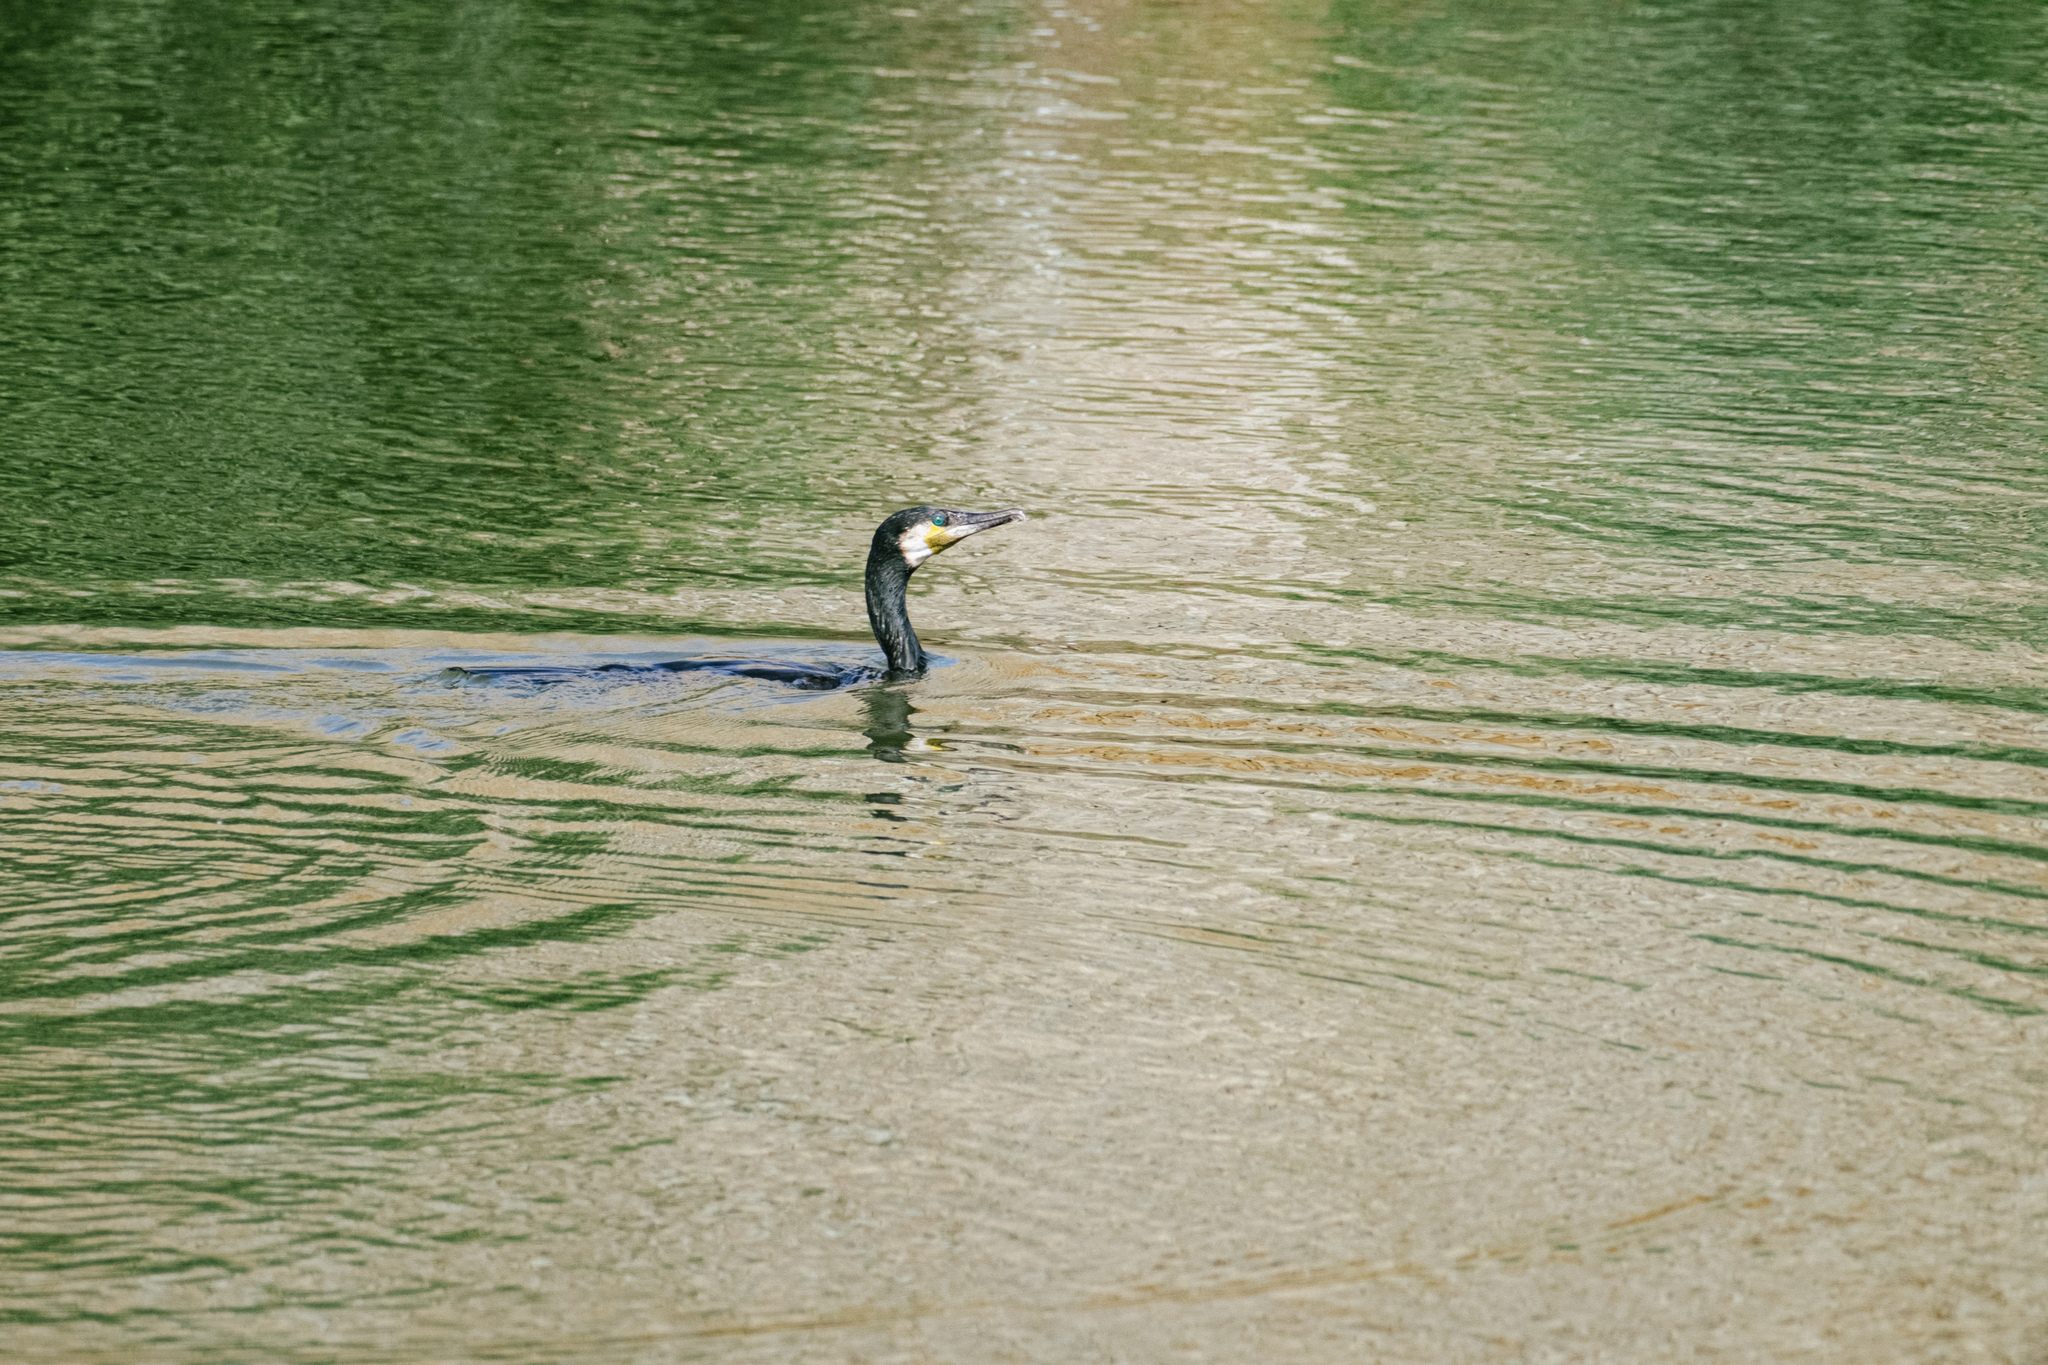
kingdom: Animalia
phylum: Chordata
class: Aves
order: Suliformes
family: Phalacrocoracidae
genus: Phalacrocorax
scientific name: Phalacrocorax carbo
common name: Great cormorant
